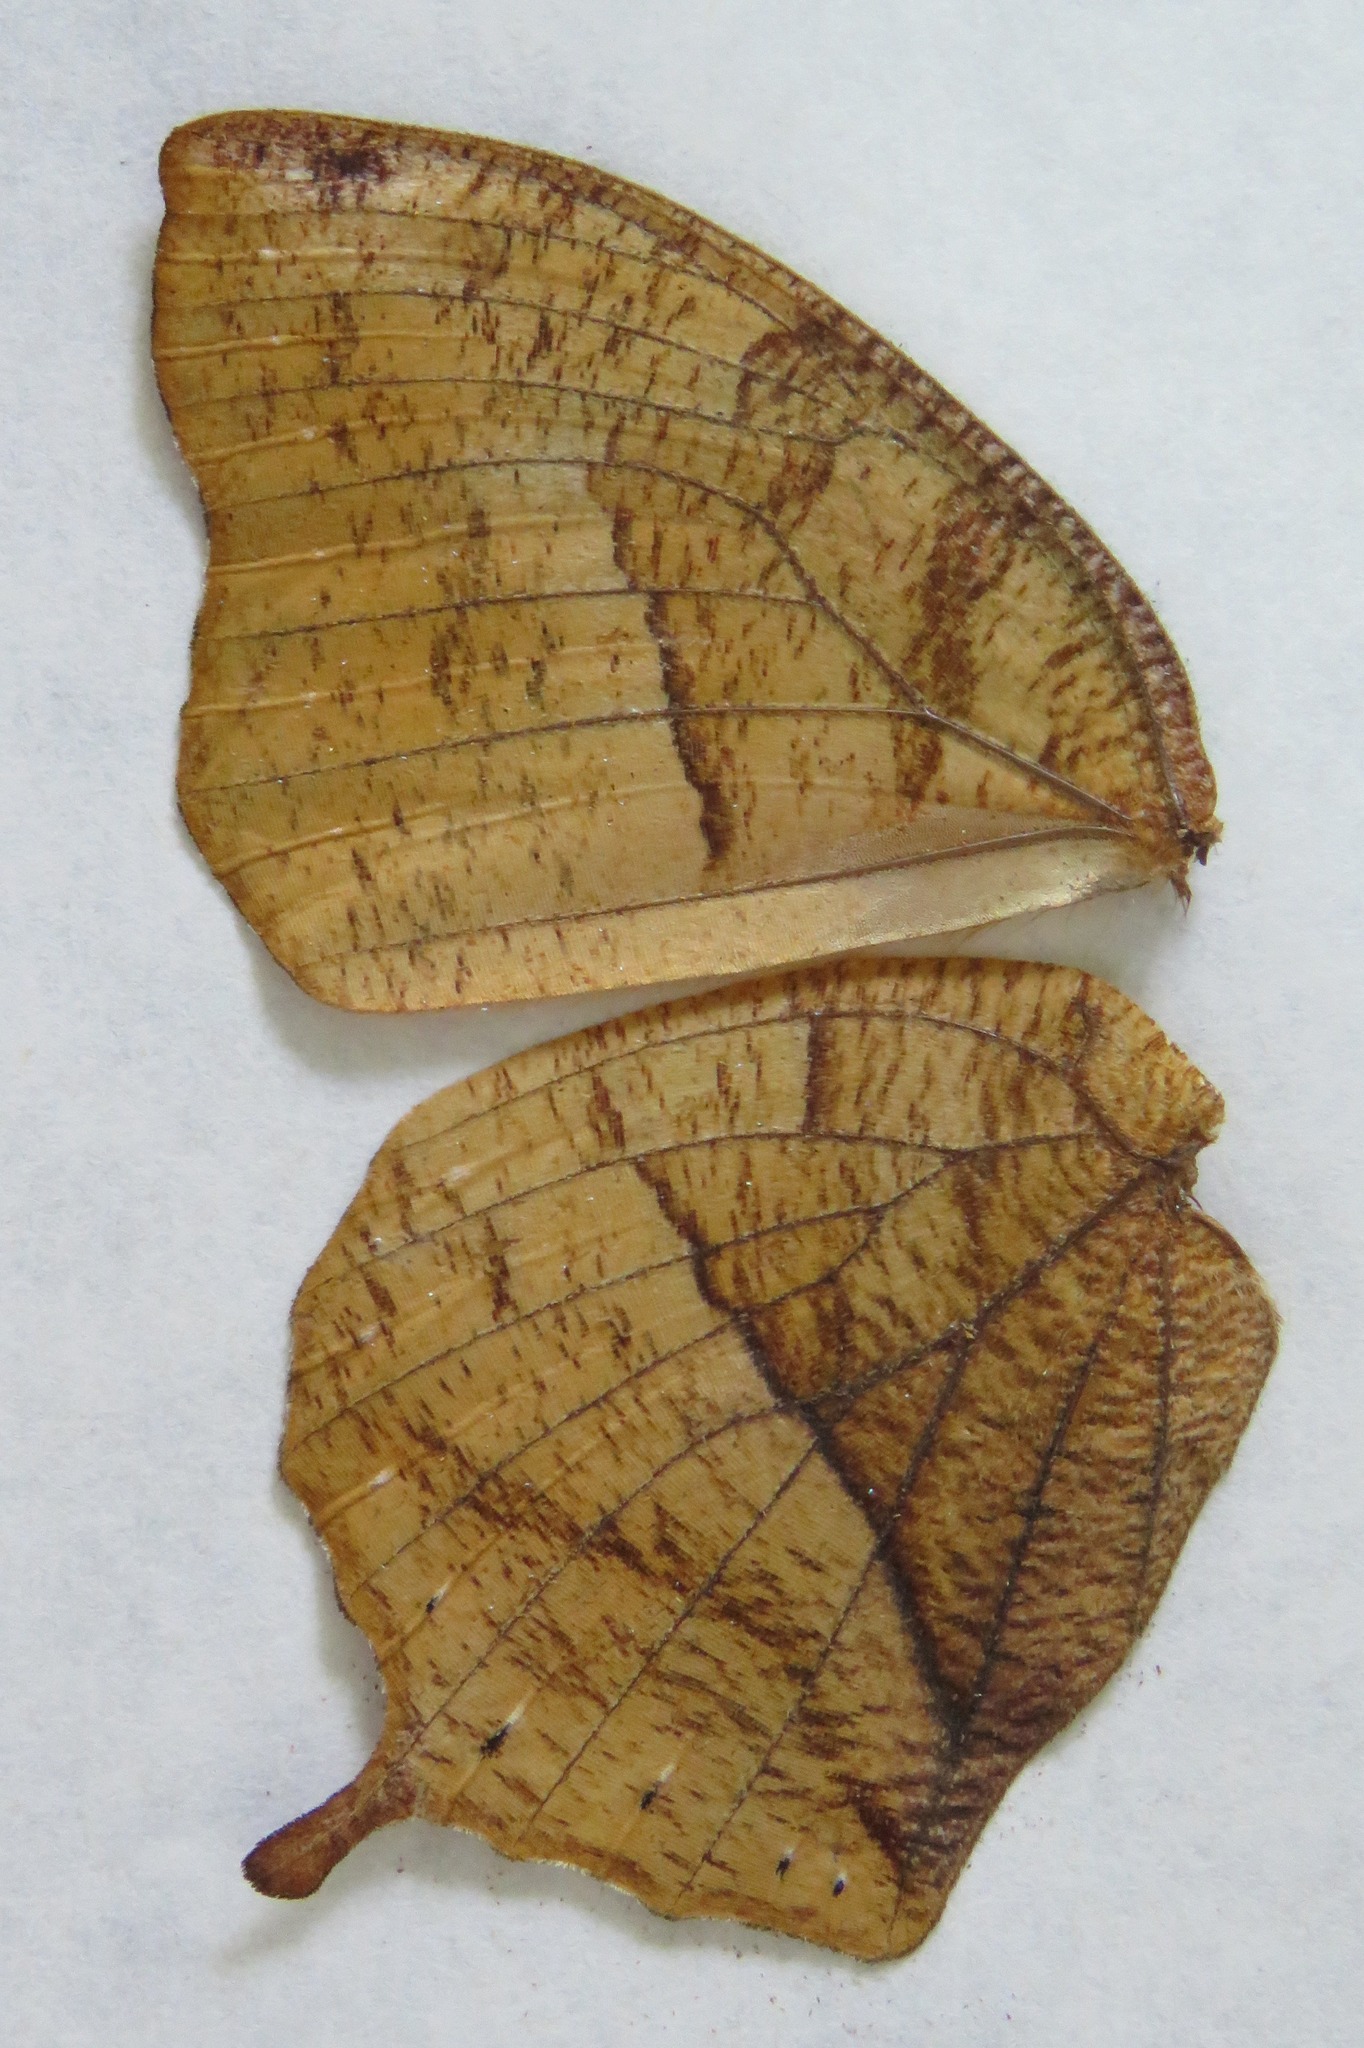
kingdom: Animalia
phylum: Arthropoda
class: Insecta
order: Lepidoptera
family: Nymphalidae
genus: Fountainea
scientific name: Fountainea
